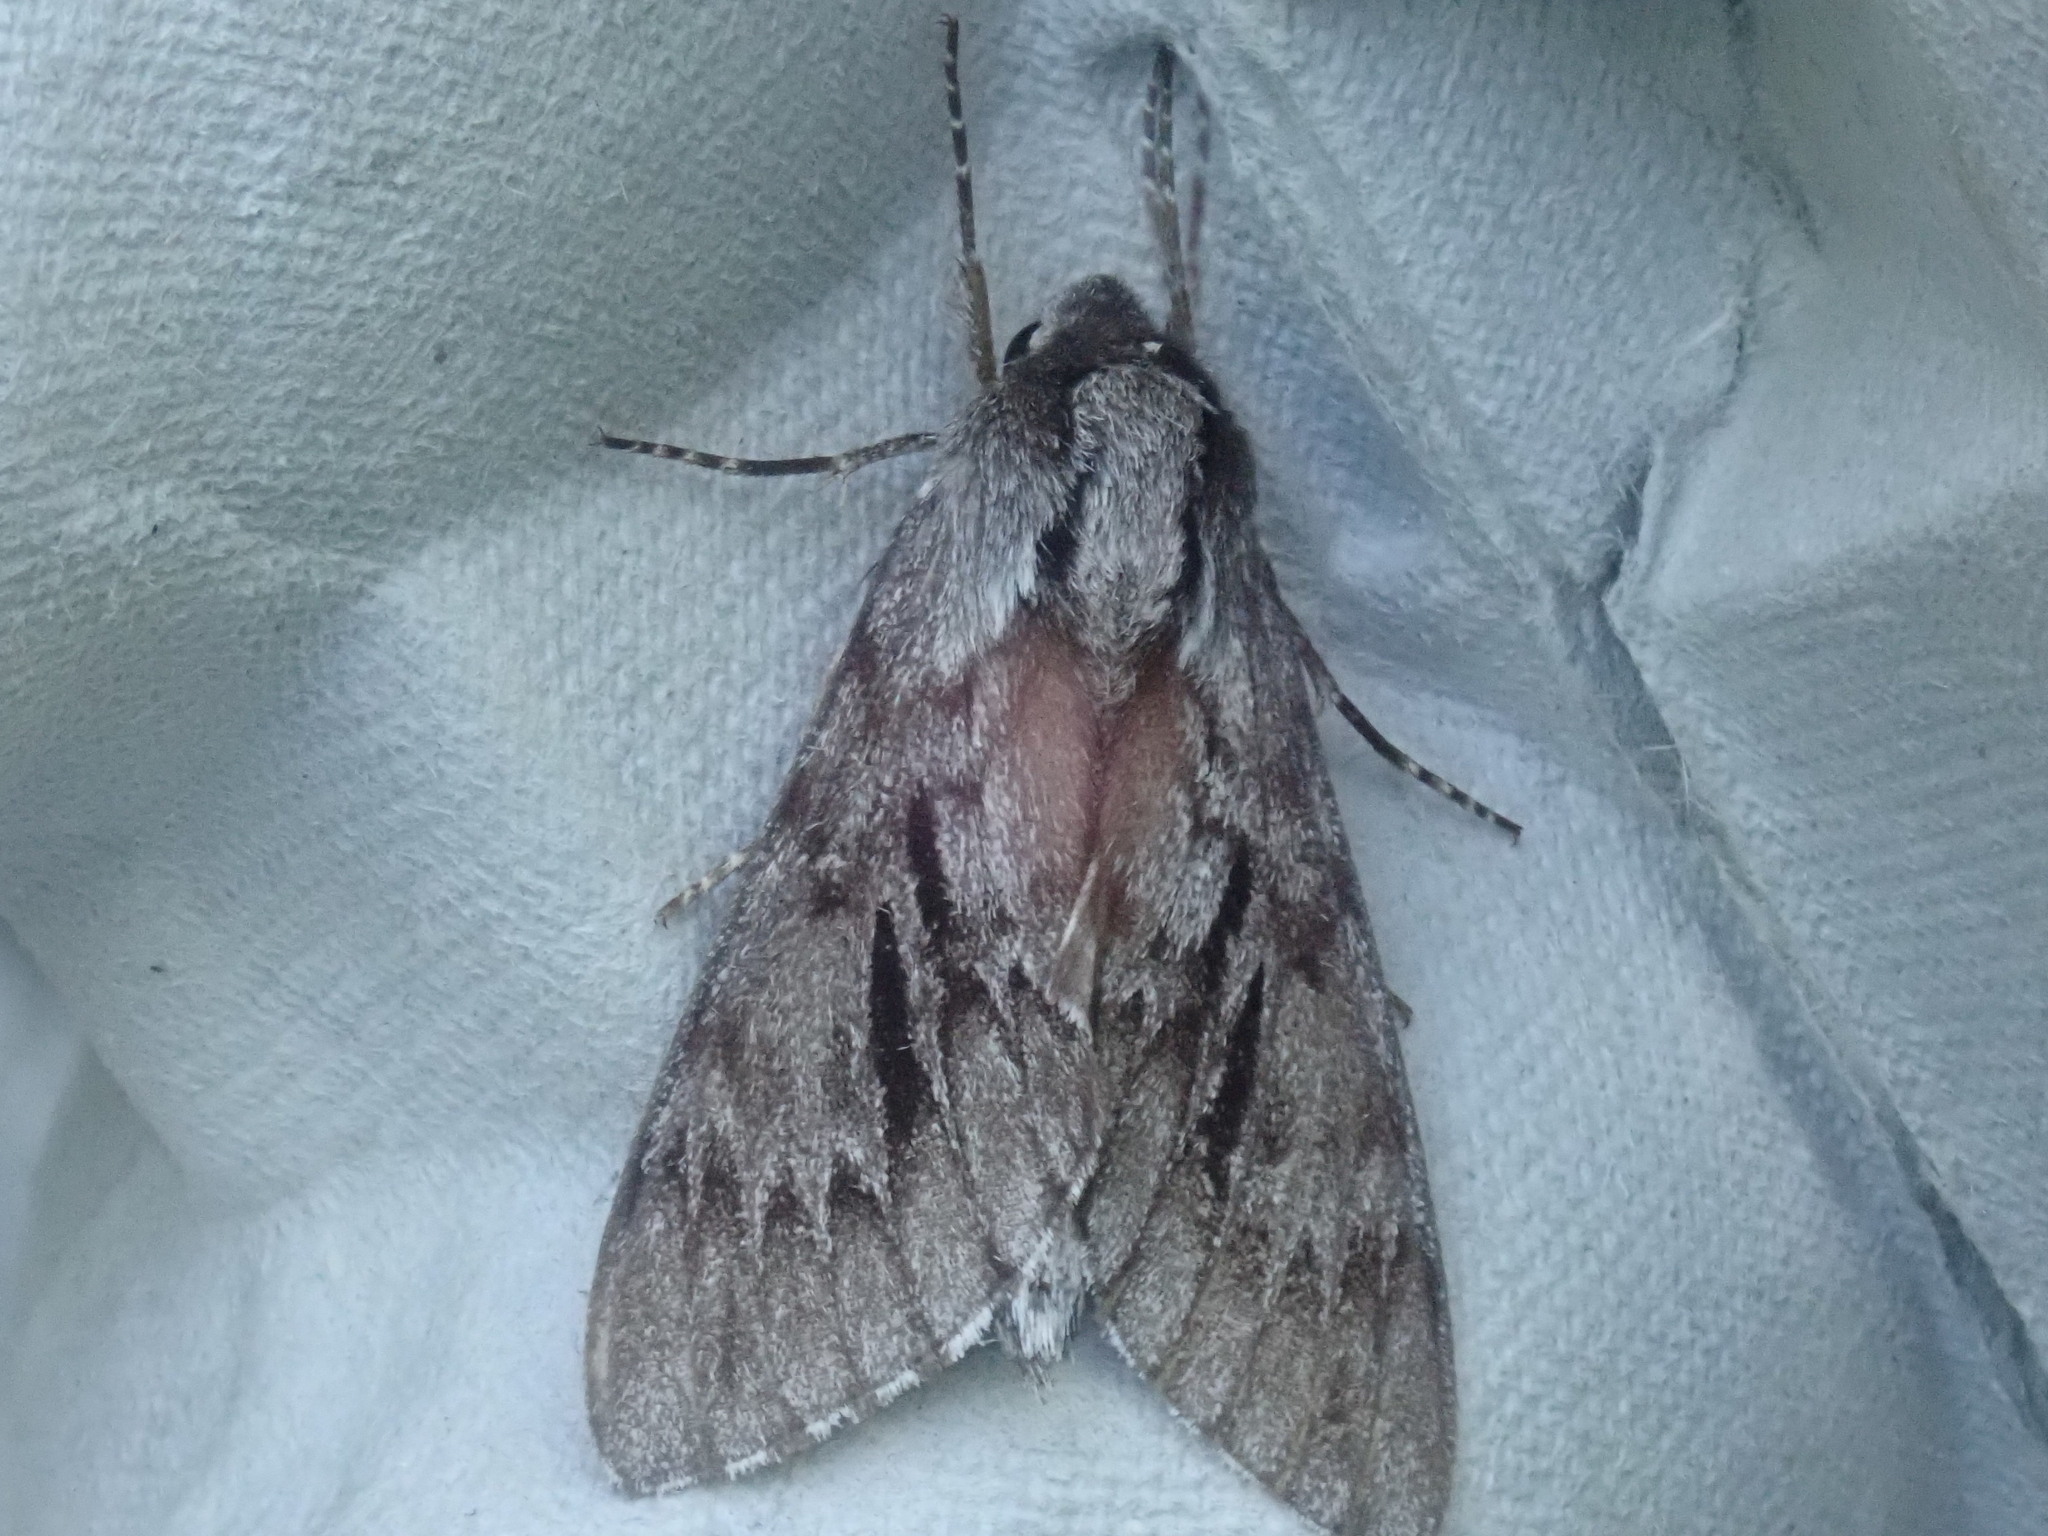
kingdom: Animalia
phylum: Arthropoda
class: Insecta
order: Lepidoptera
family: Sphingidae
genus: Lapara
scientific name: Lapara bombycoides
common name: Northern pine sphinx
